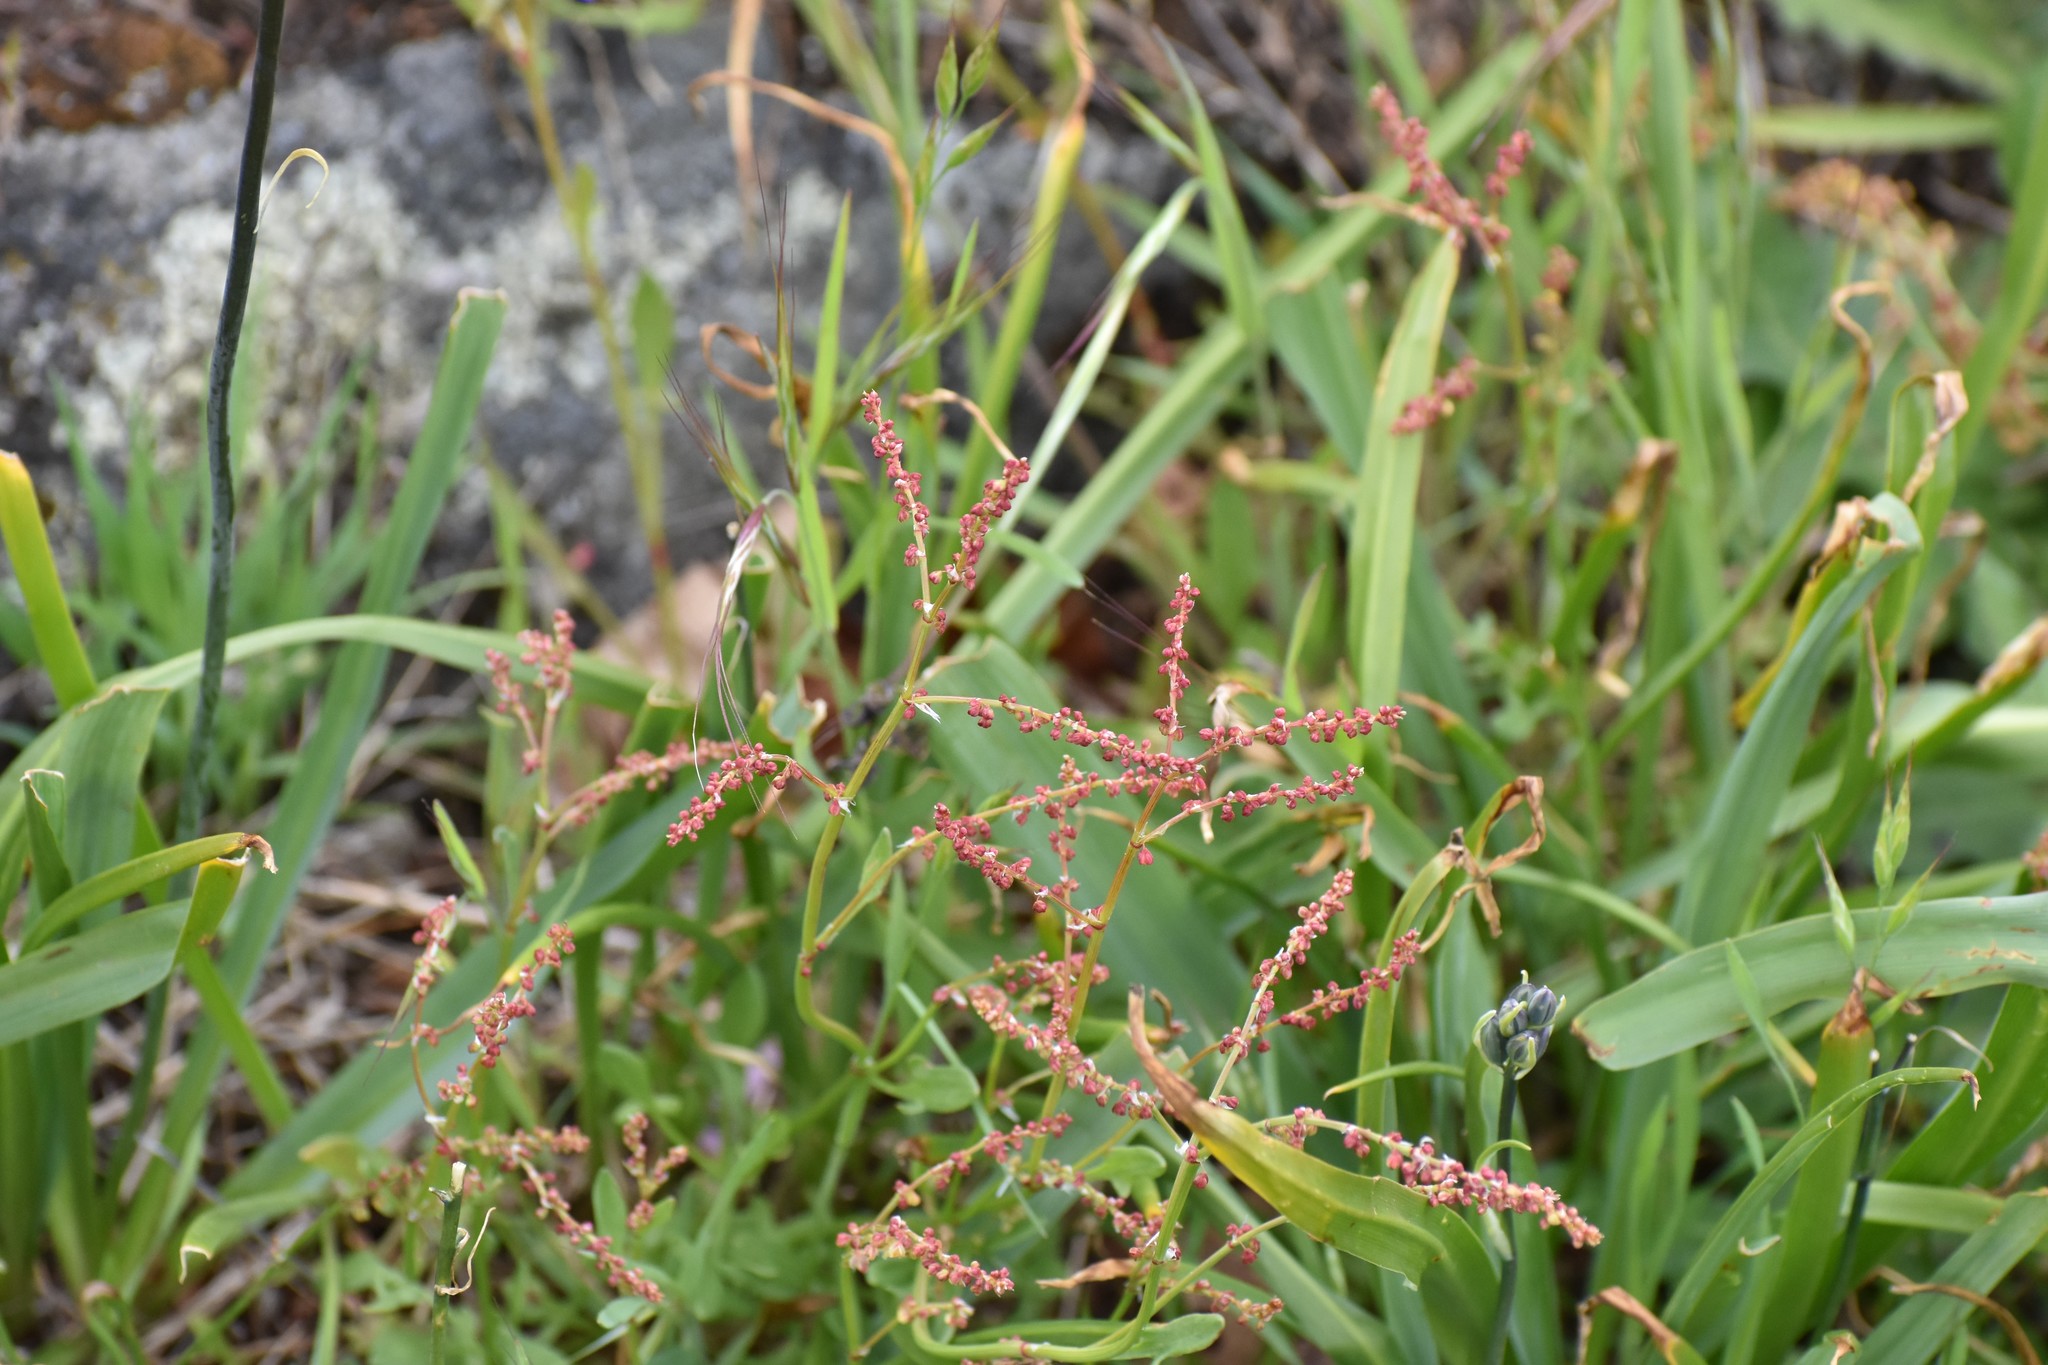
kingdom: Plantae
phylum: Tracheophyta
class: Magnoliopsida
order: Caryophyllales
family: Polygonaceae
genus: Rumex
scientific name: Rumex acetosella
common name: Common sheep sorrel
